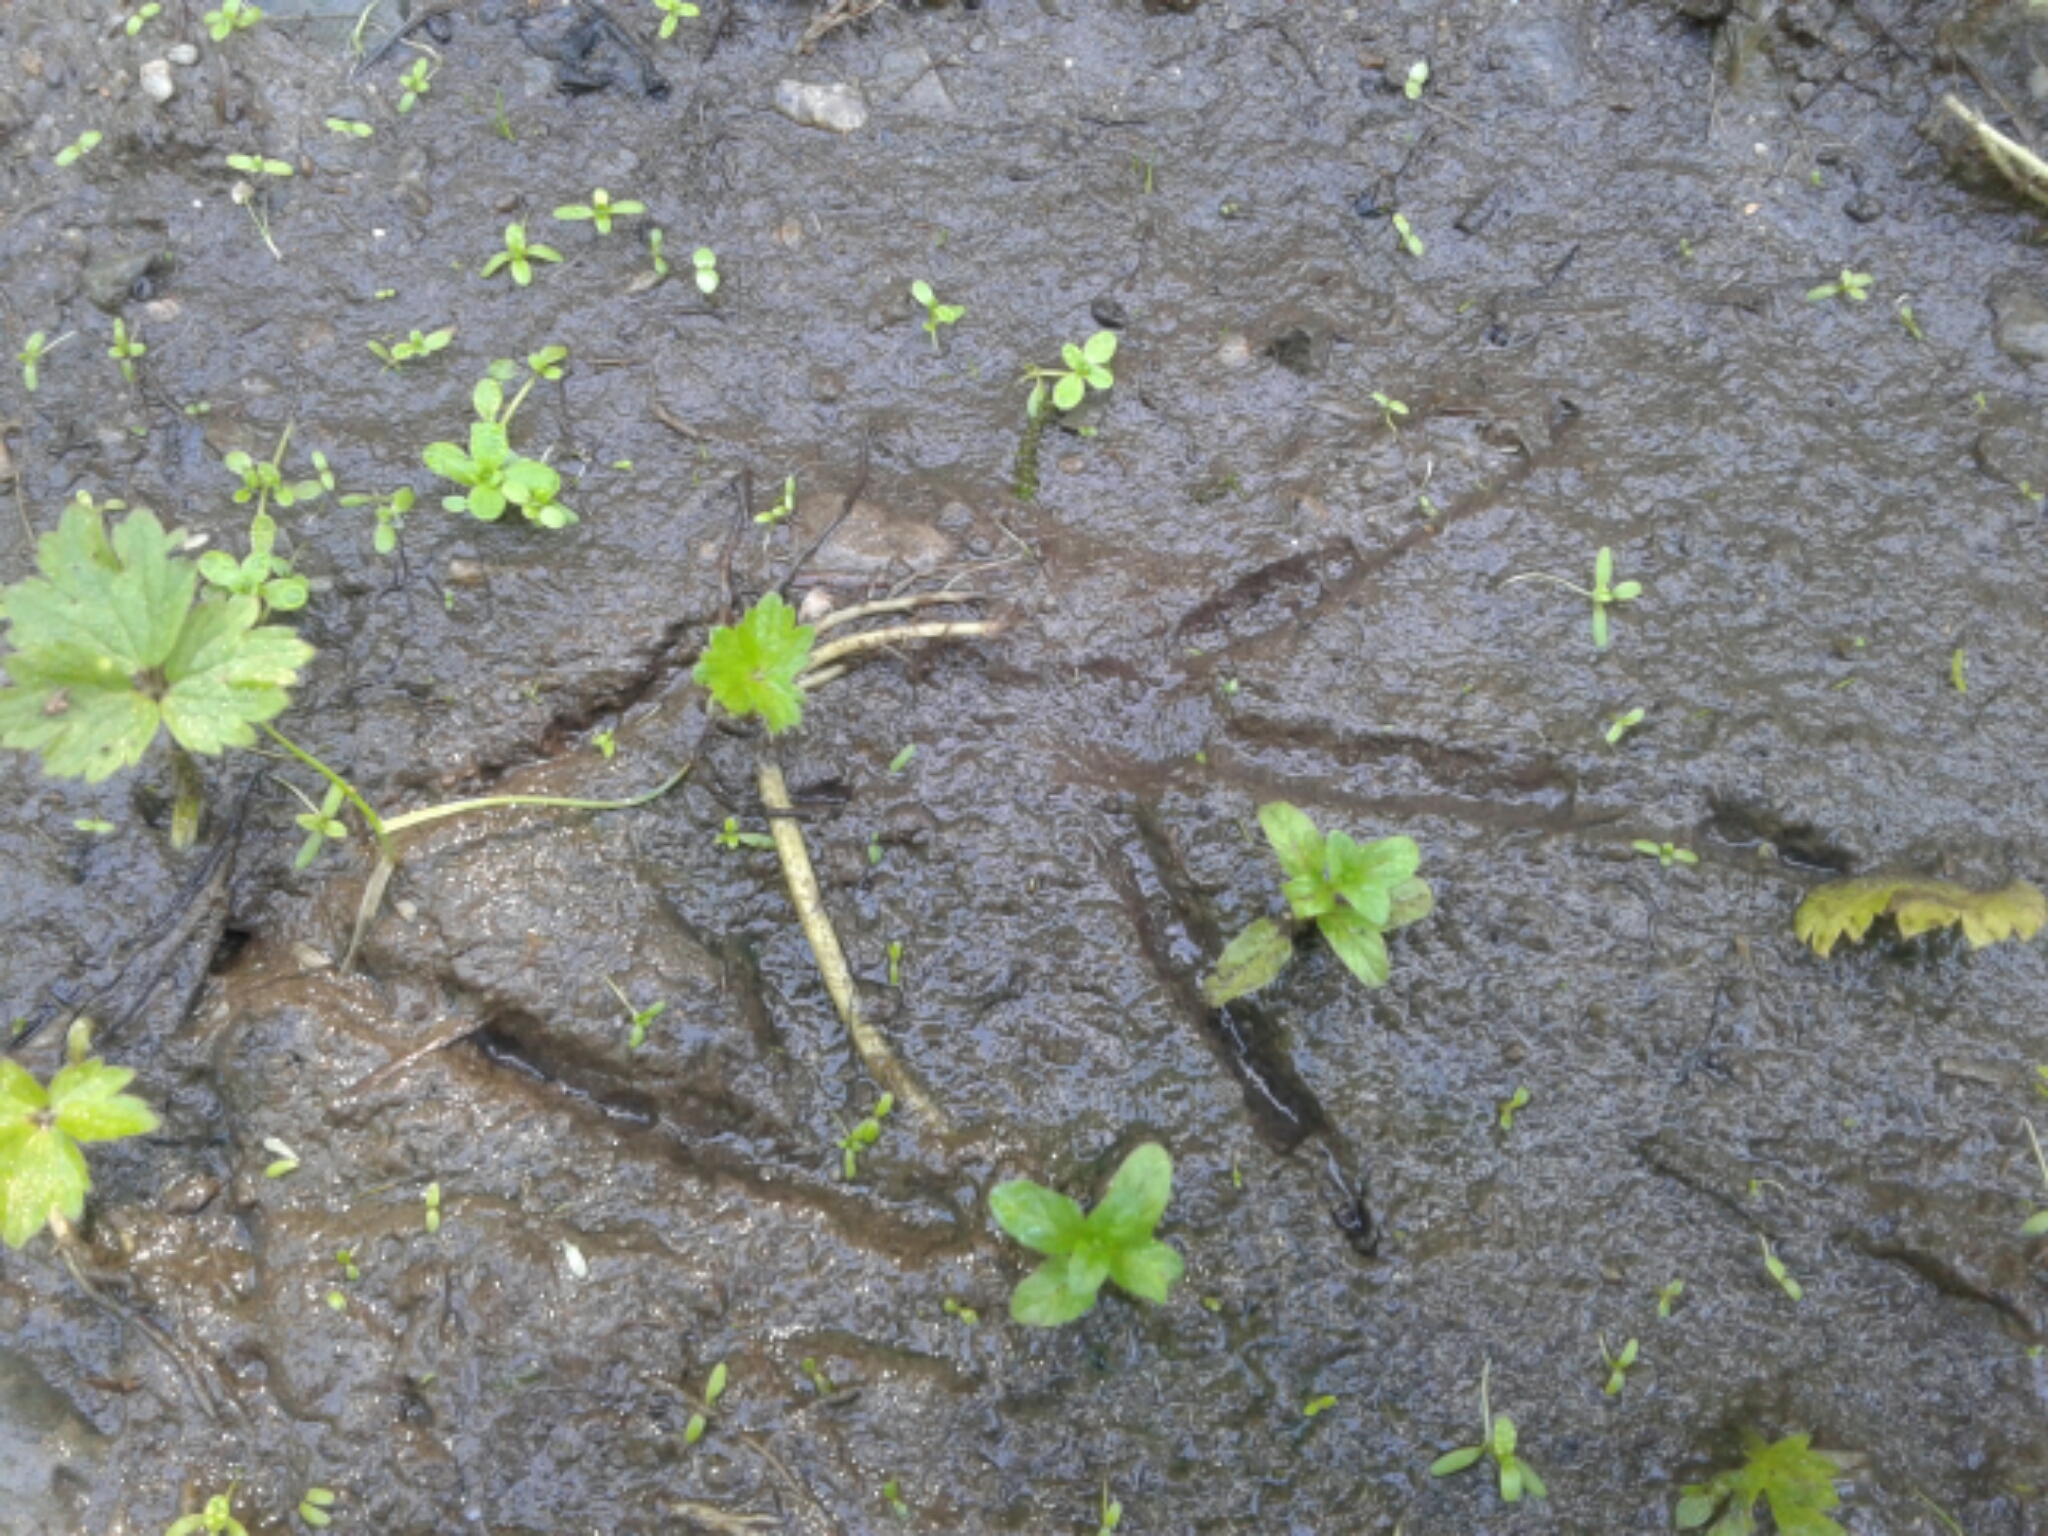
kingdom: Animalia
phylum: Chordata
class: Aves
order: Gruiformes
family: Rallidae
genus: Gallirallus
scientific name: Gallirallus australis
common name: Weka
